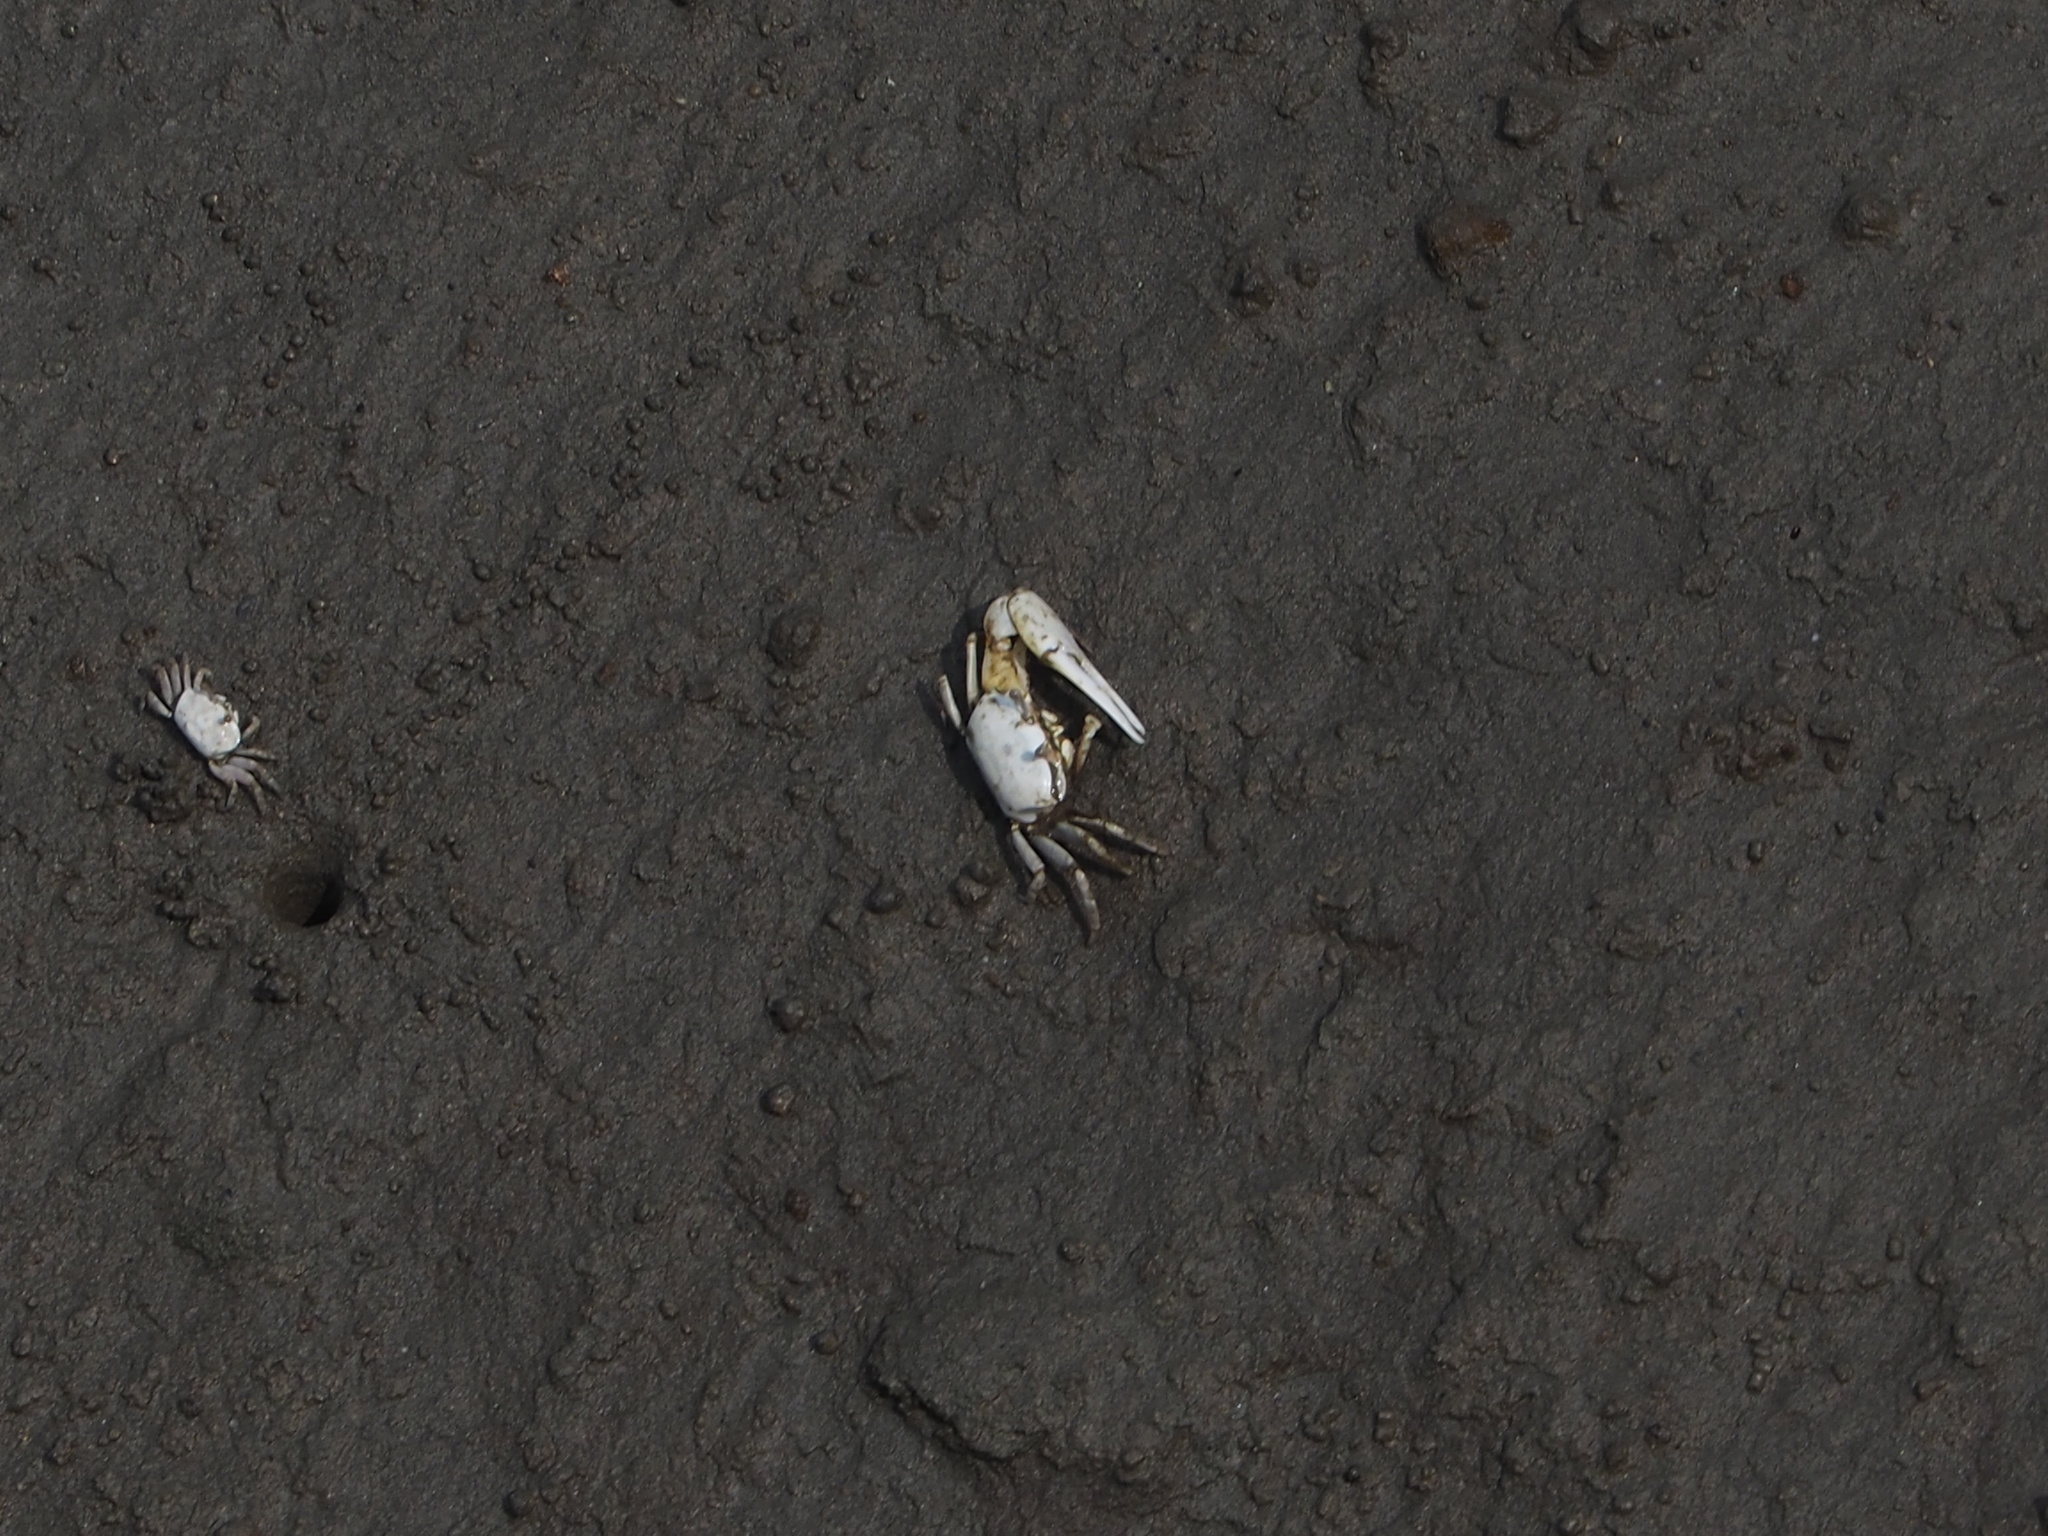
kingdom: Animalia
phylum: Arthropoda
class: Malacostraca
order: Decapoda
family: Ocypodidae
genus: Austruca
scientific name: Austruca lactea
